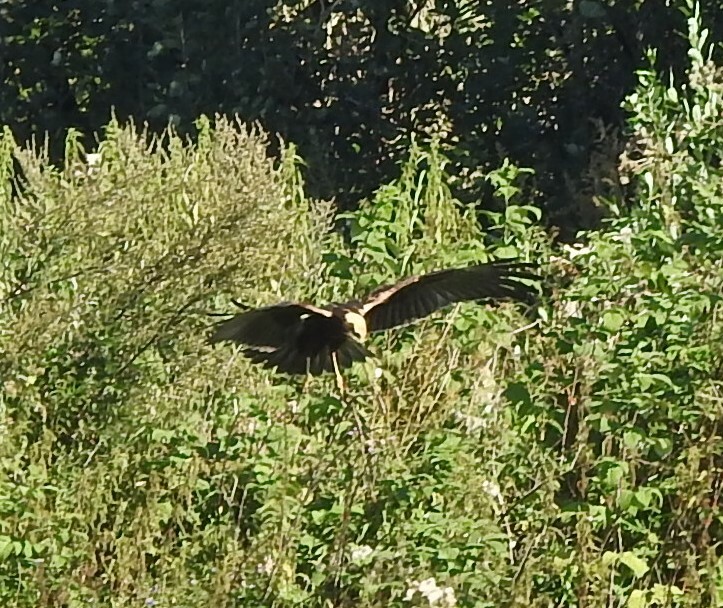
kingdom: Animalia
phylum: Chordata
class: Aves
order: Accipitriformes
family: Accipitridae
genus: Circus
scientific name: Circus aeruginosus
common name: Western marsh harrier
